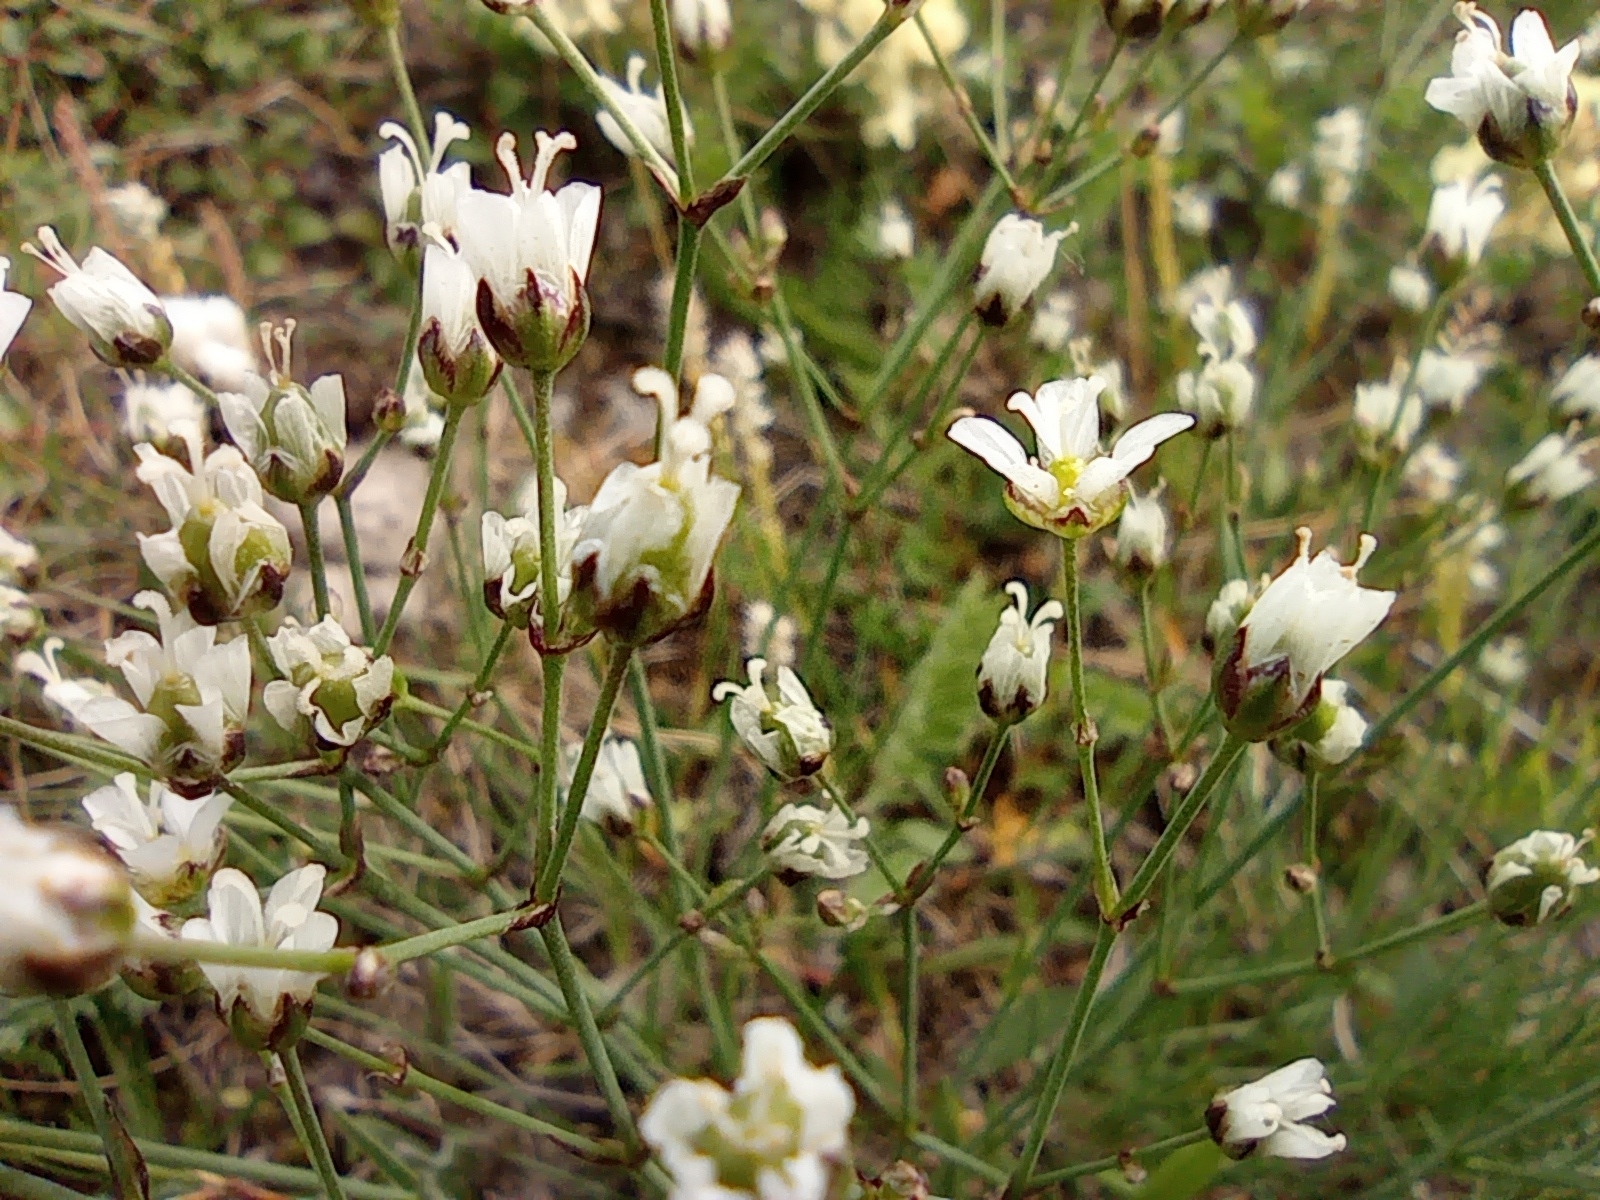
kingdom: Plantae
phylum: Tracheophyta
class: Magnoliopsida
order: Caryophyllales
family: Caryophyllaceae
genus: Eremogone
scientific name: Eremogone polaris
